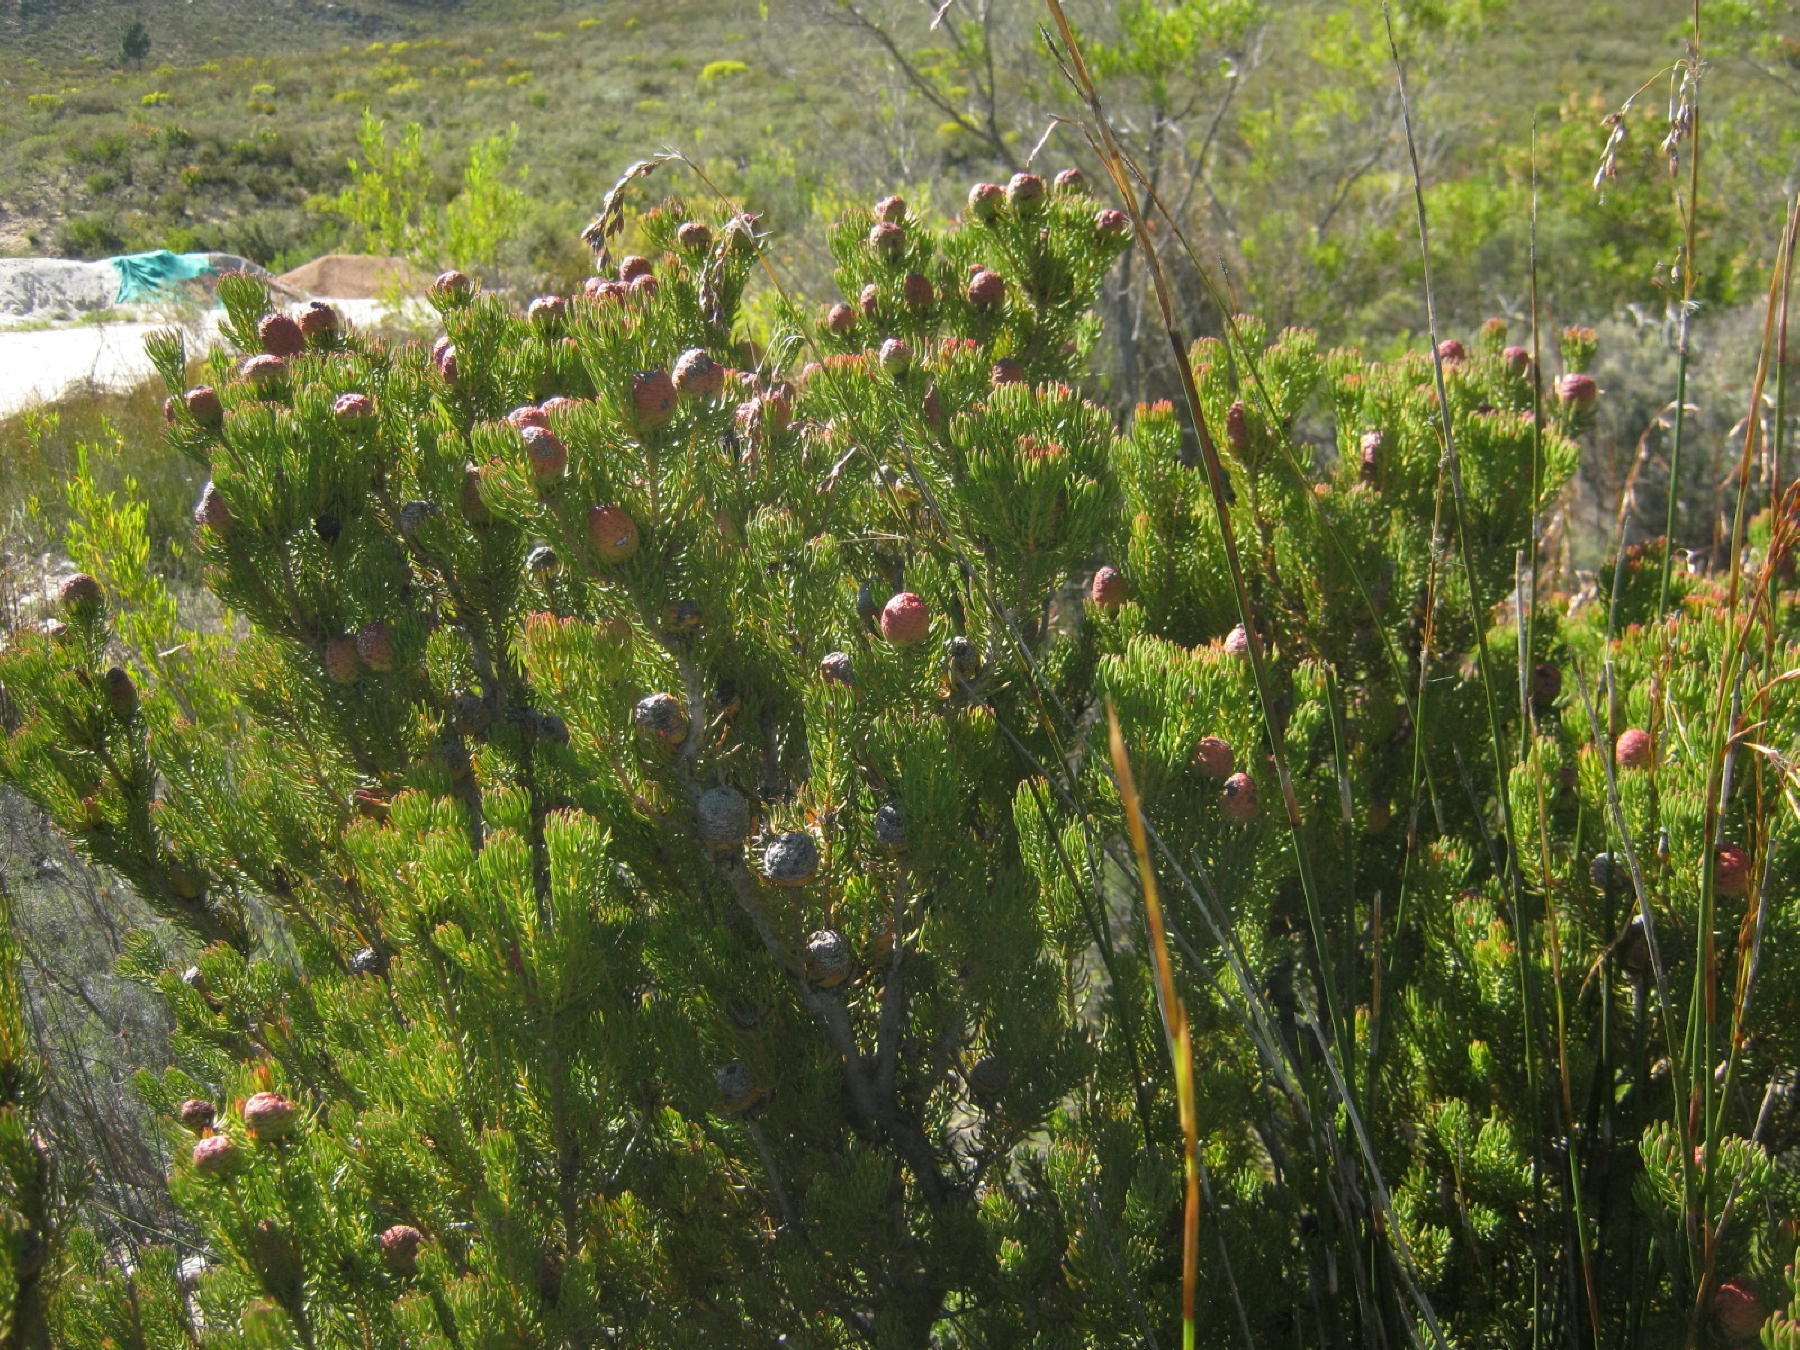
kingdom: Plantae
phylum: Tracheophyta
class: Magnoliopsida
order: Proteales
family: Proteaceae
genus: Leucadendron
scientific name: Leucadendron teretifolium
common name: Needle-leaf conebush
